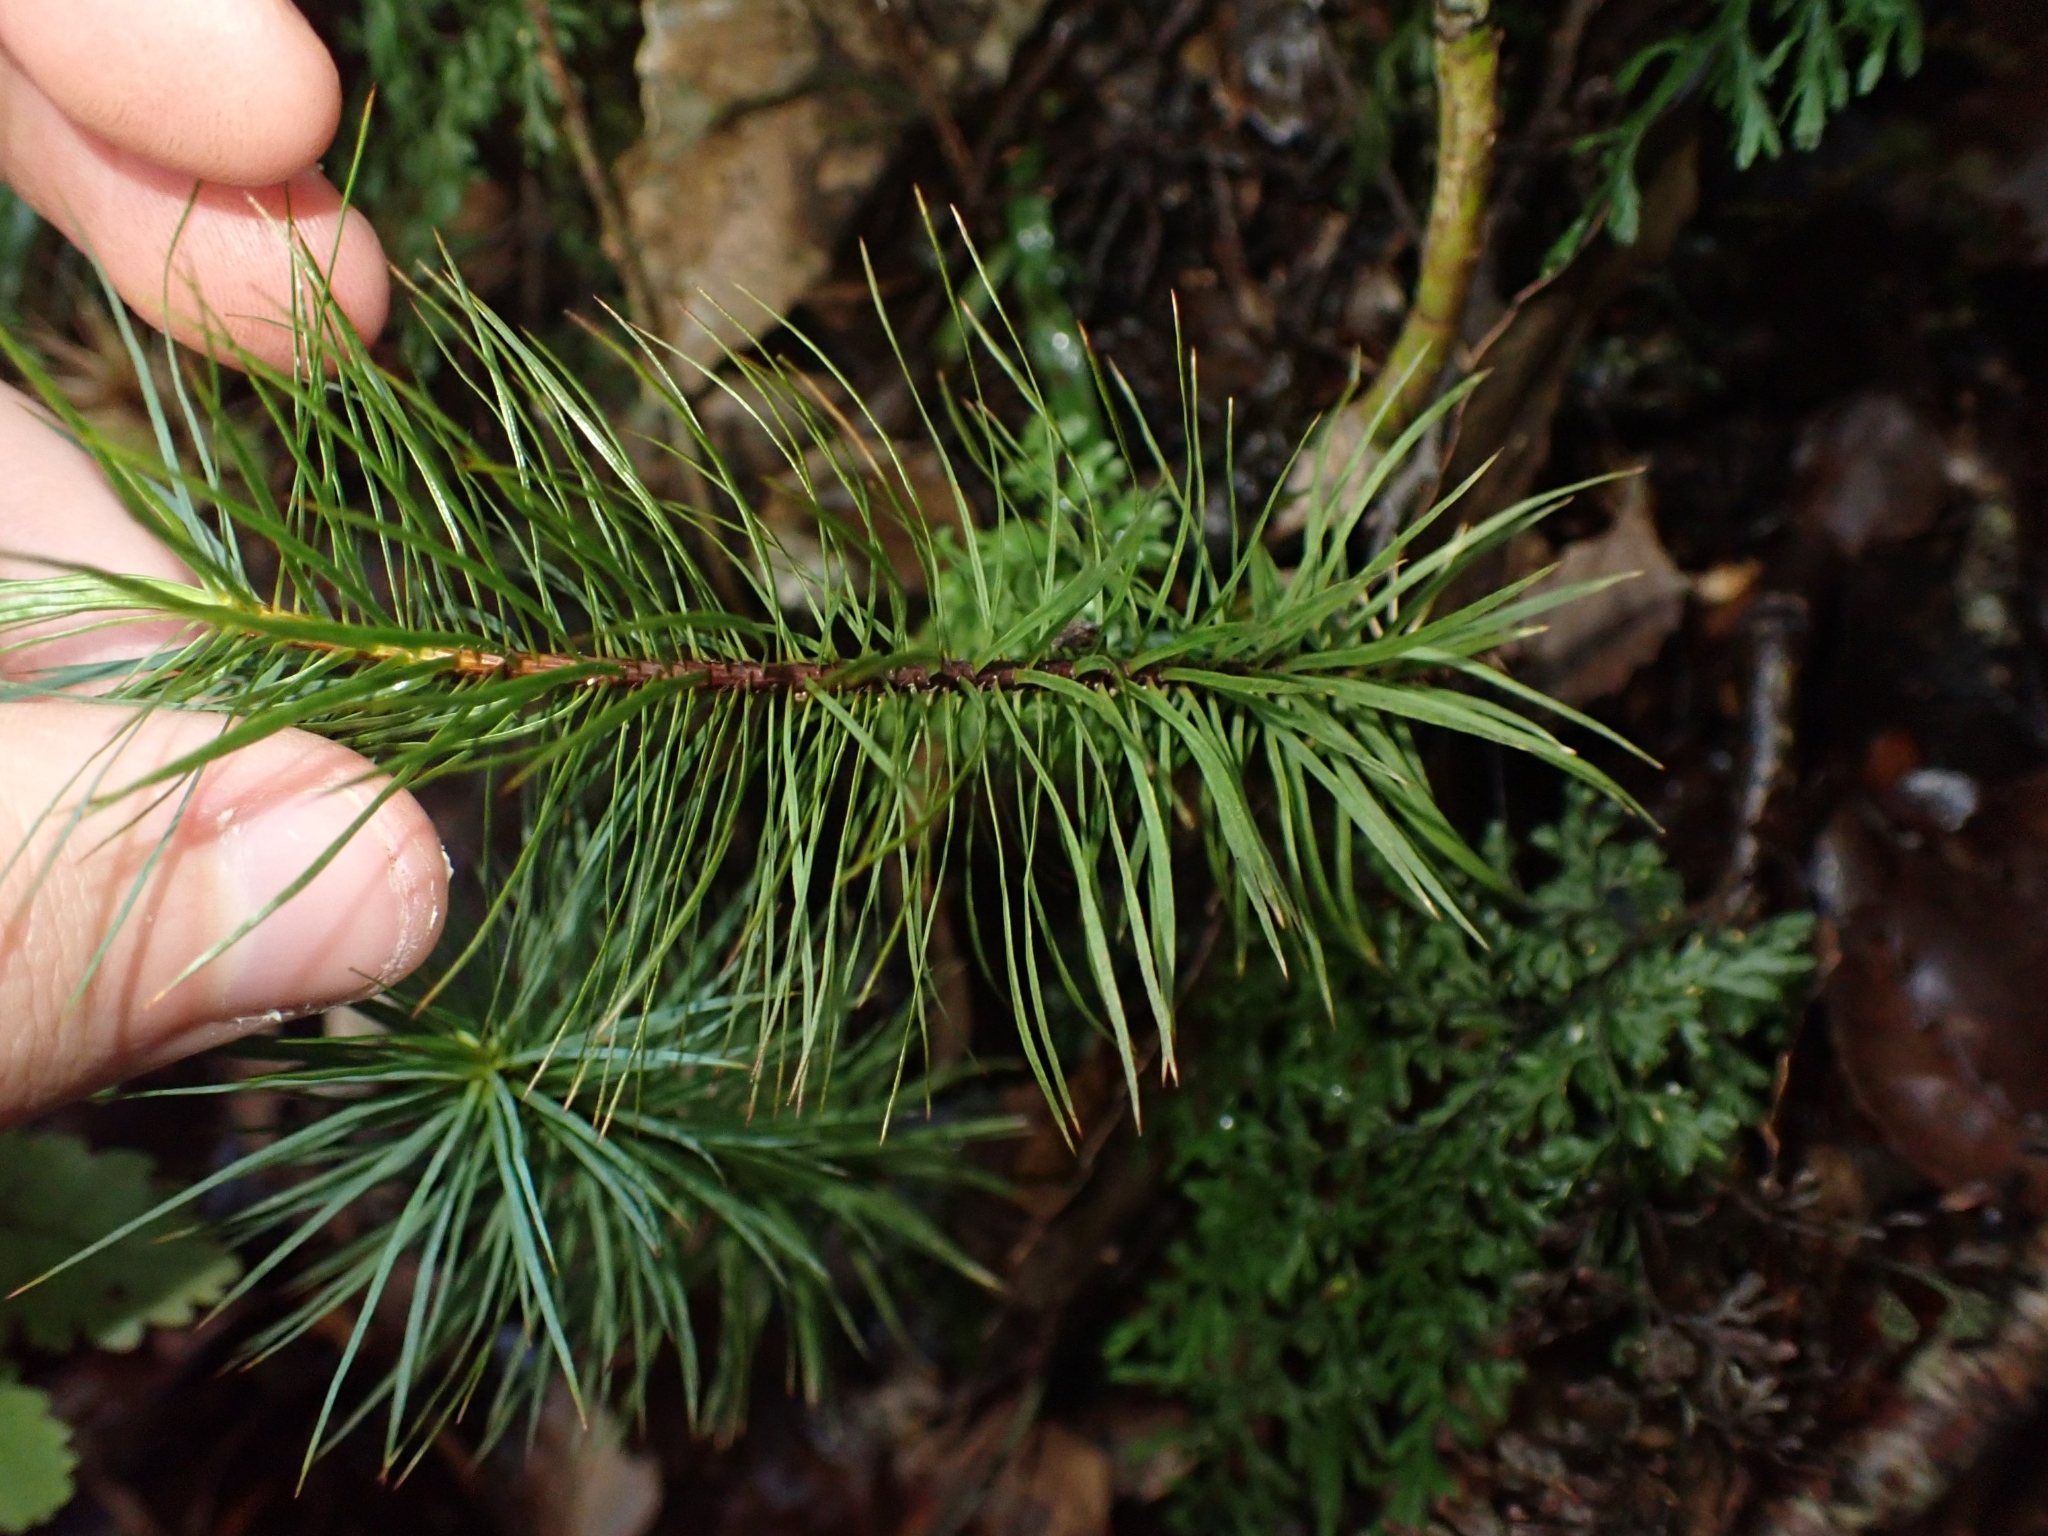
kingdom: Plantae
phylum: Bryophyta
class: Polytrichopsida
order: Polytrichales
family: Polytrichaceae
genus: Dawsonia
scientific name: Dawsonia superba
